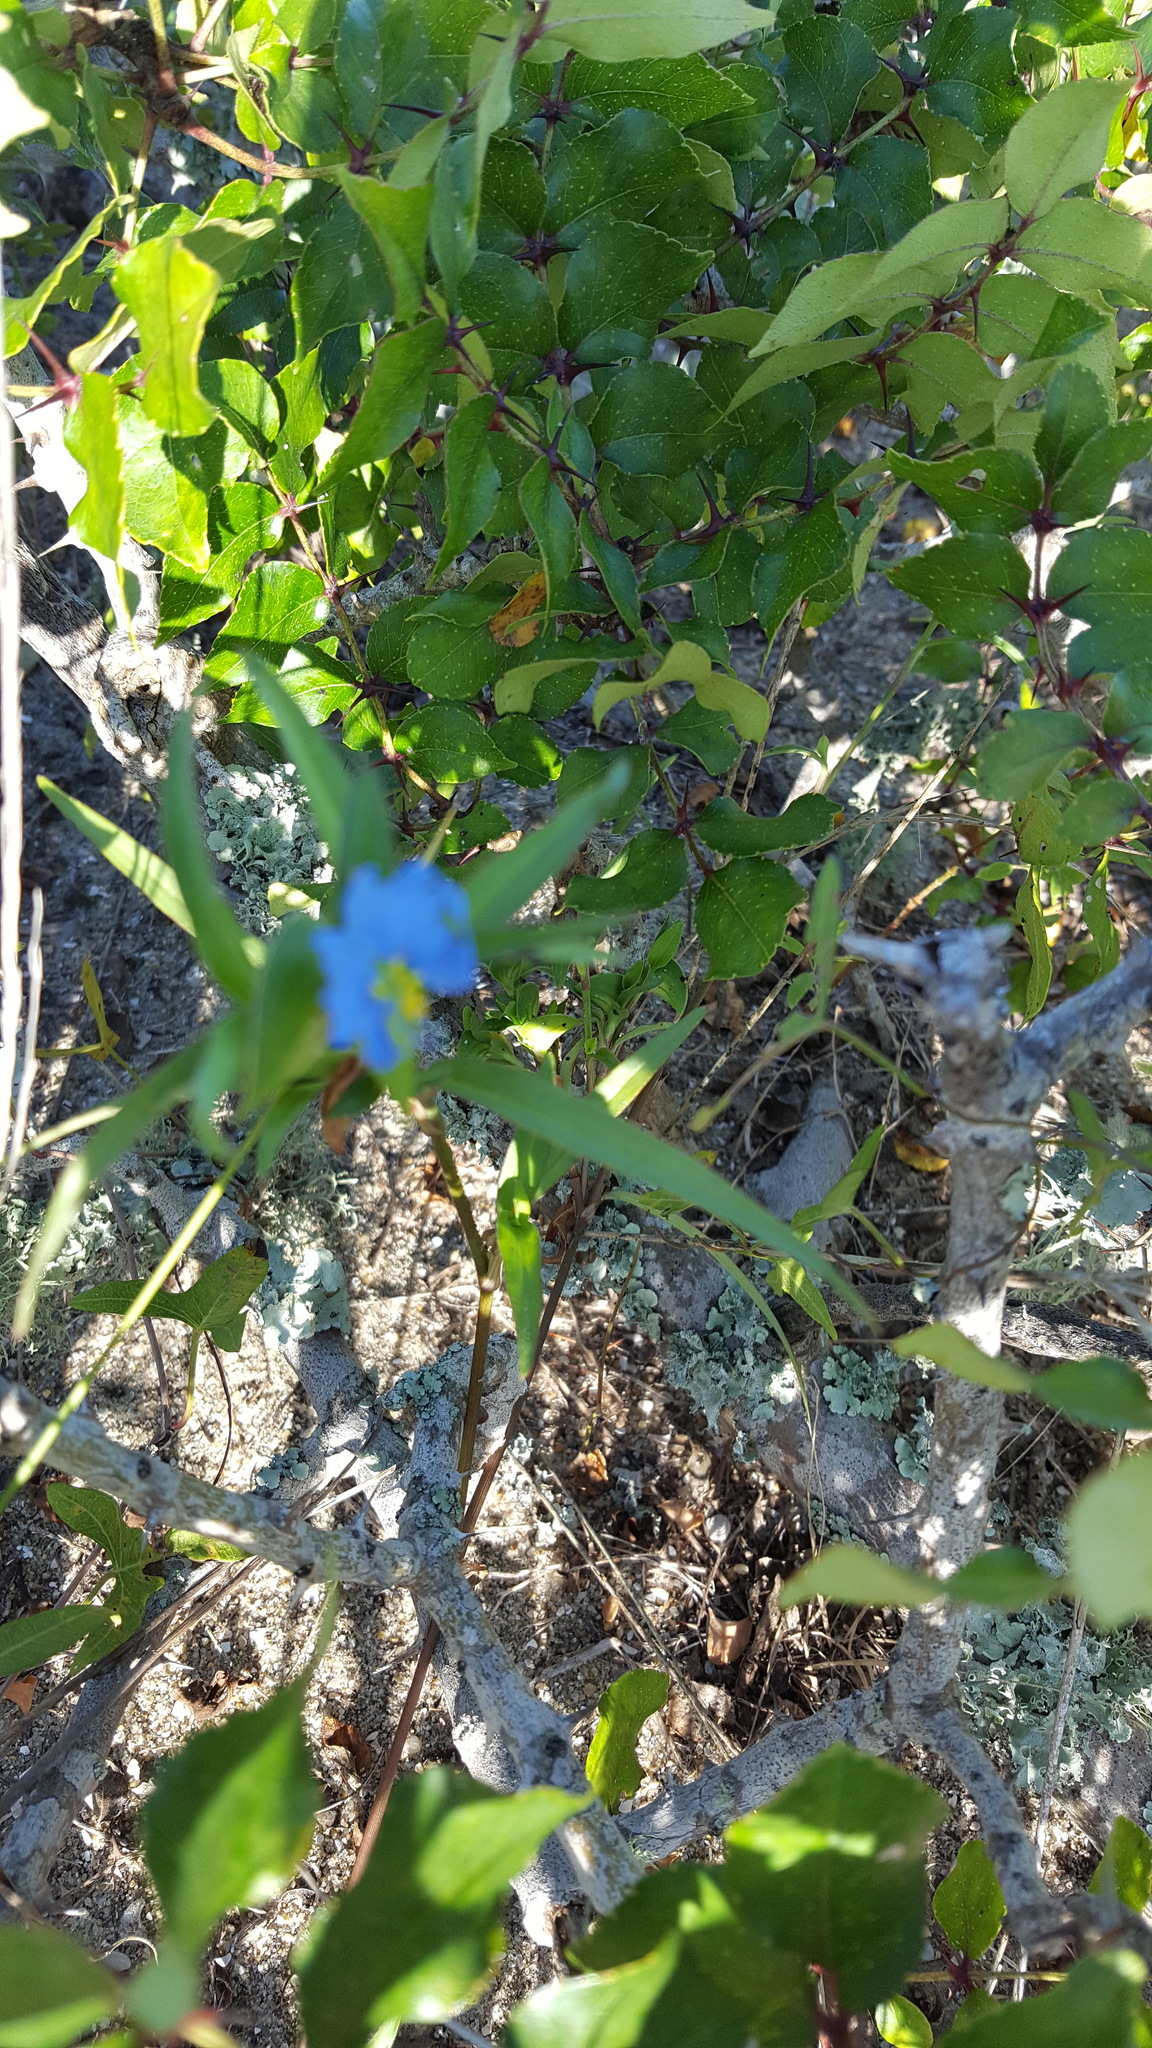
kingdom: Plantae
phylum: Tracheophyta
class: Liliopsida
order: Commelinales
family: Commelinaceae
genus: Commelina
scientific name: Commelina erecta
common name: Blousel blommetjie
